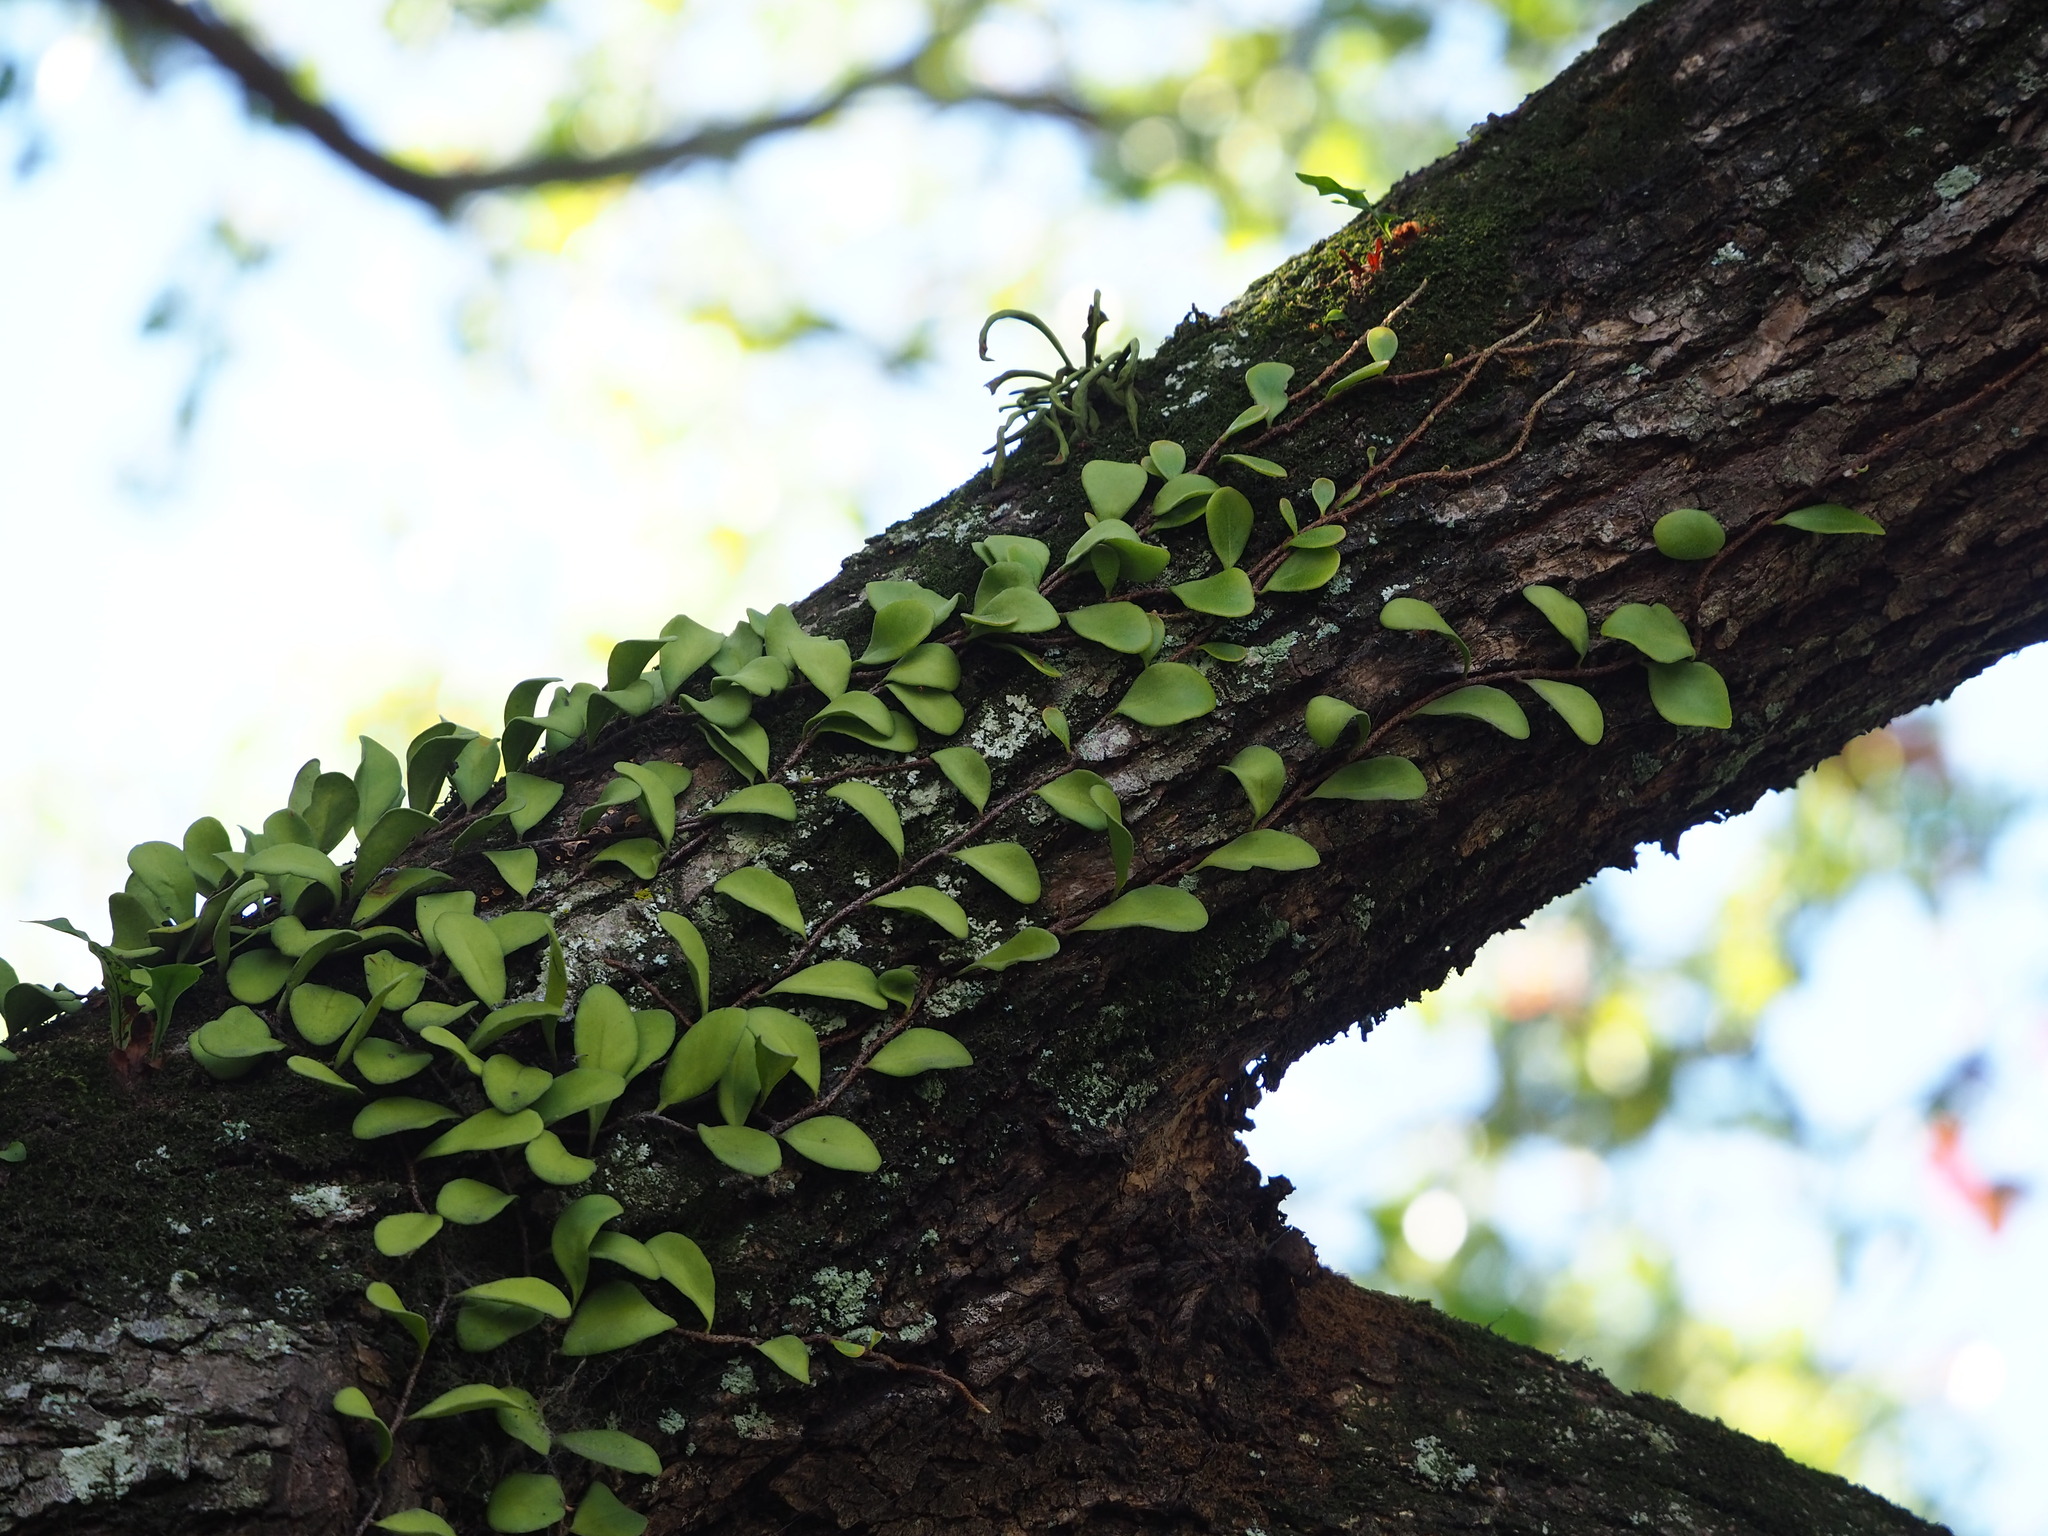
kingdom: Plantae
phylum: Tracheophyta
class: Polypodiopsida
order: Polypodiales
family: Polypodiaceae
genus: Pyrrosia
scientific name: Pyrrosia lanceolata
